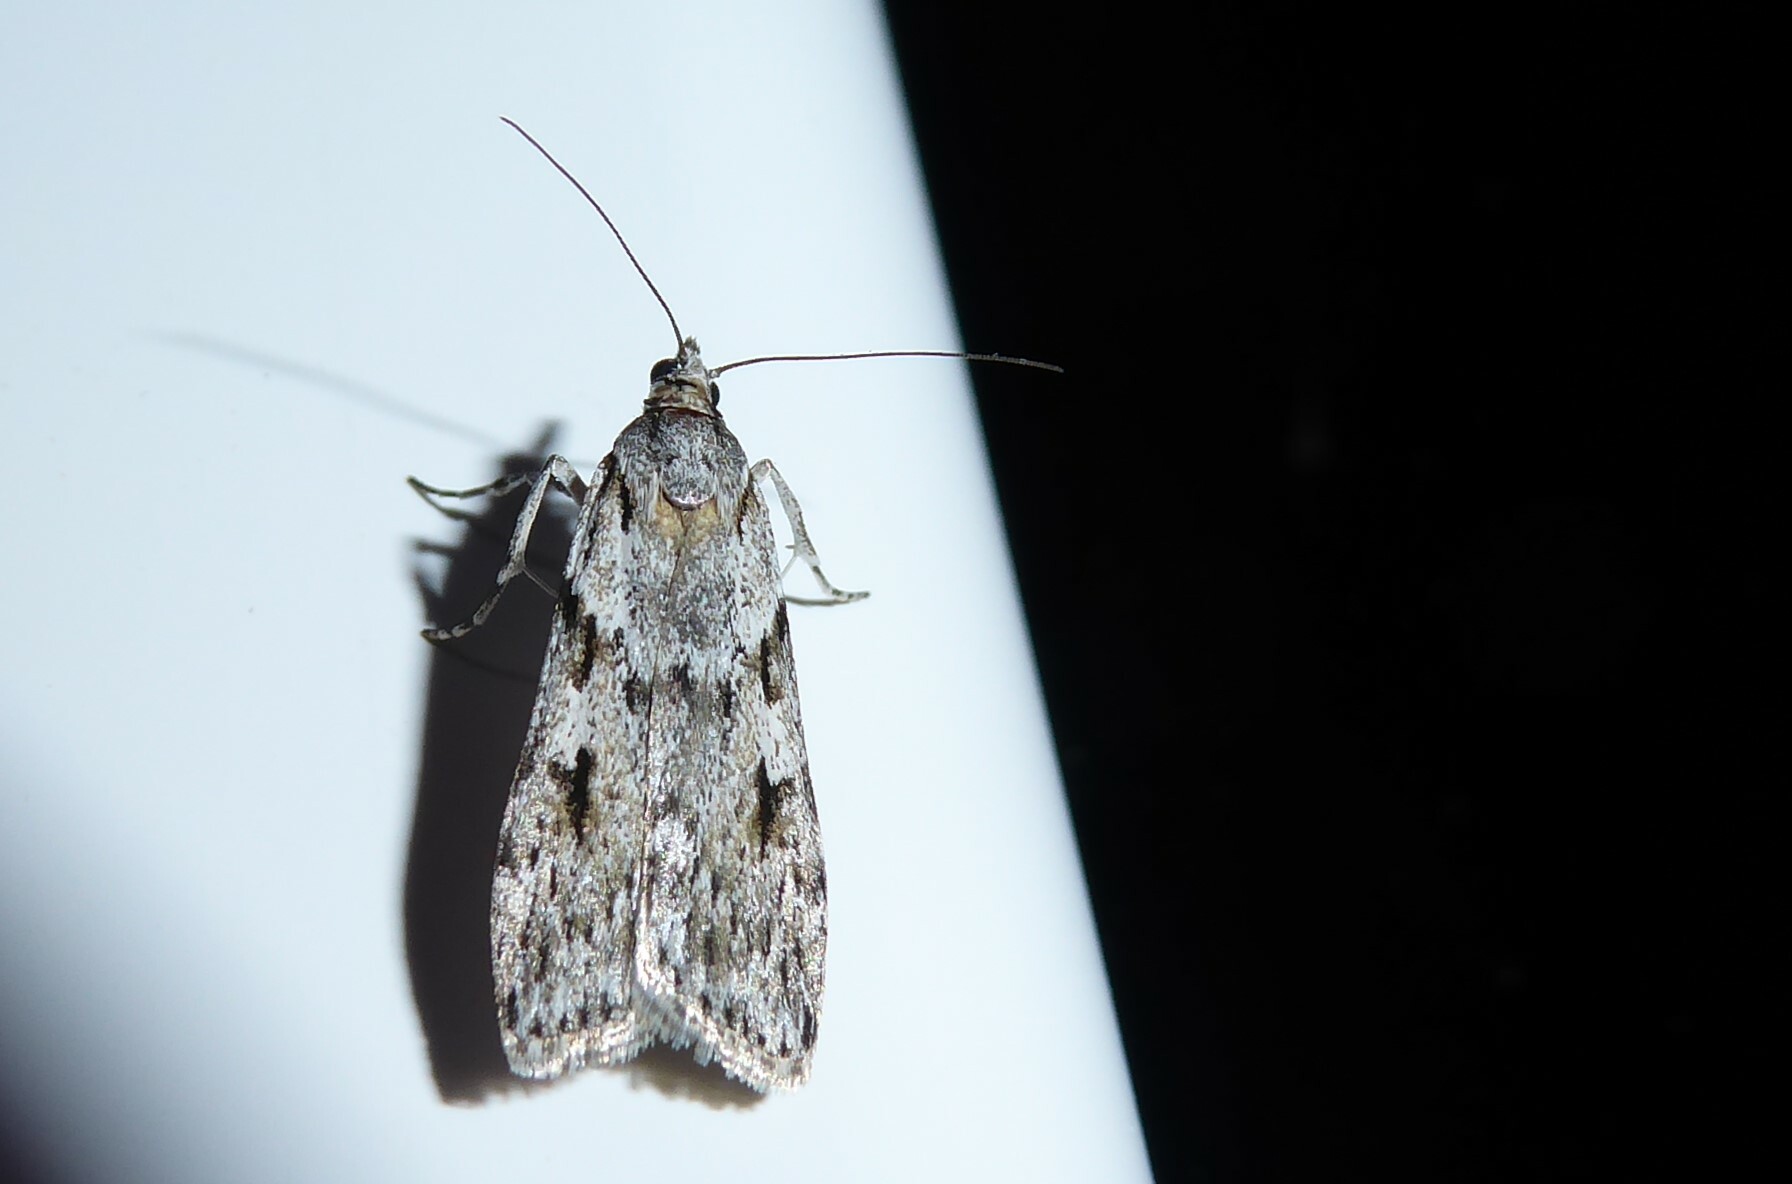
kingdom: Animalia
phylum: Arthropoda
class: Insecta
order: Lepidoptera
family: Crambidae
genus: Scoparia
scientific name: Scoparia halopis
